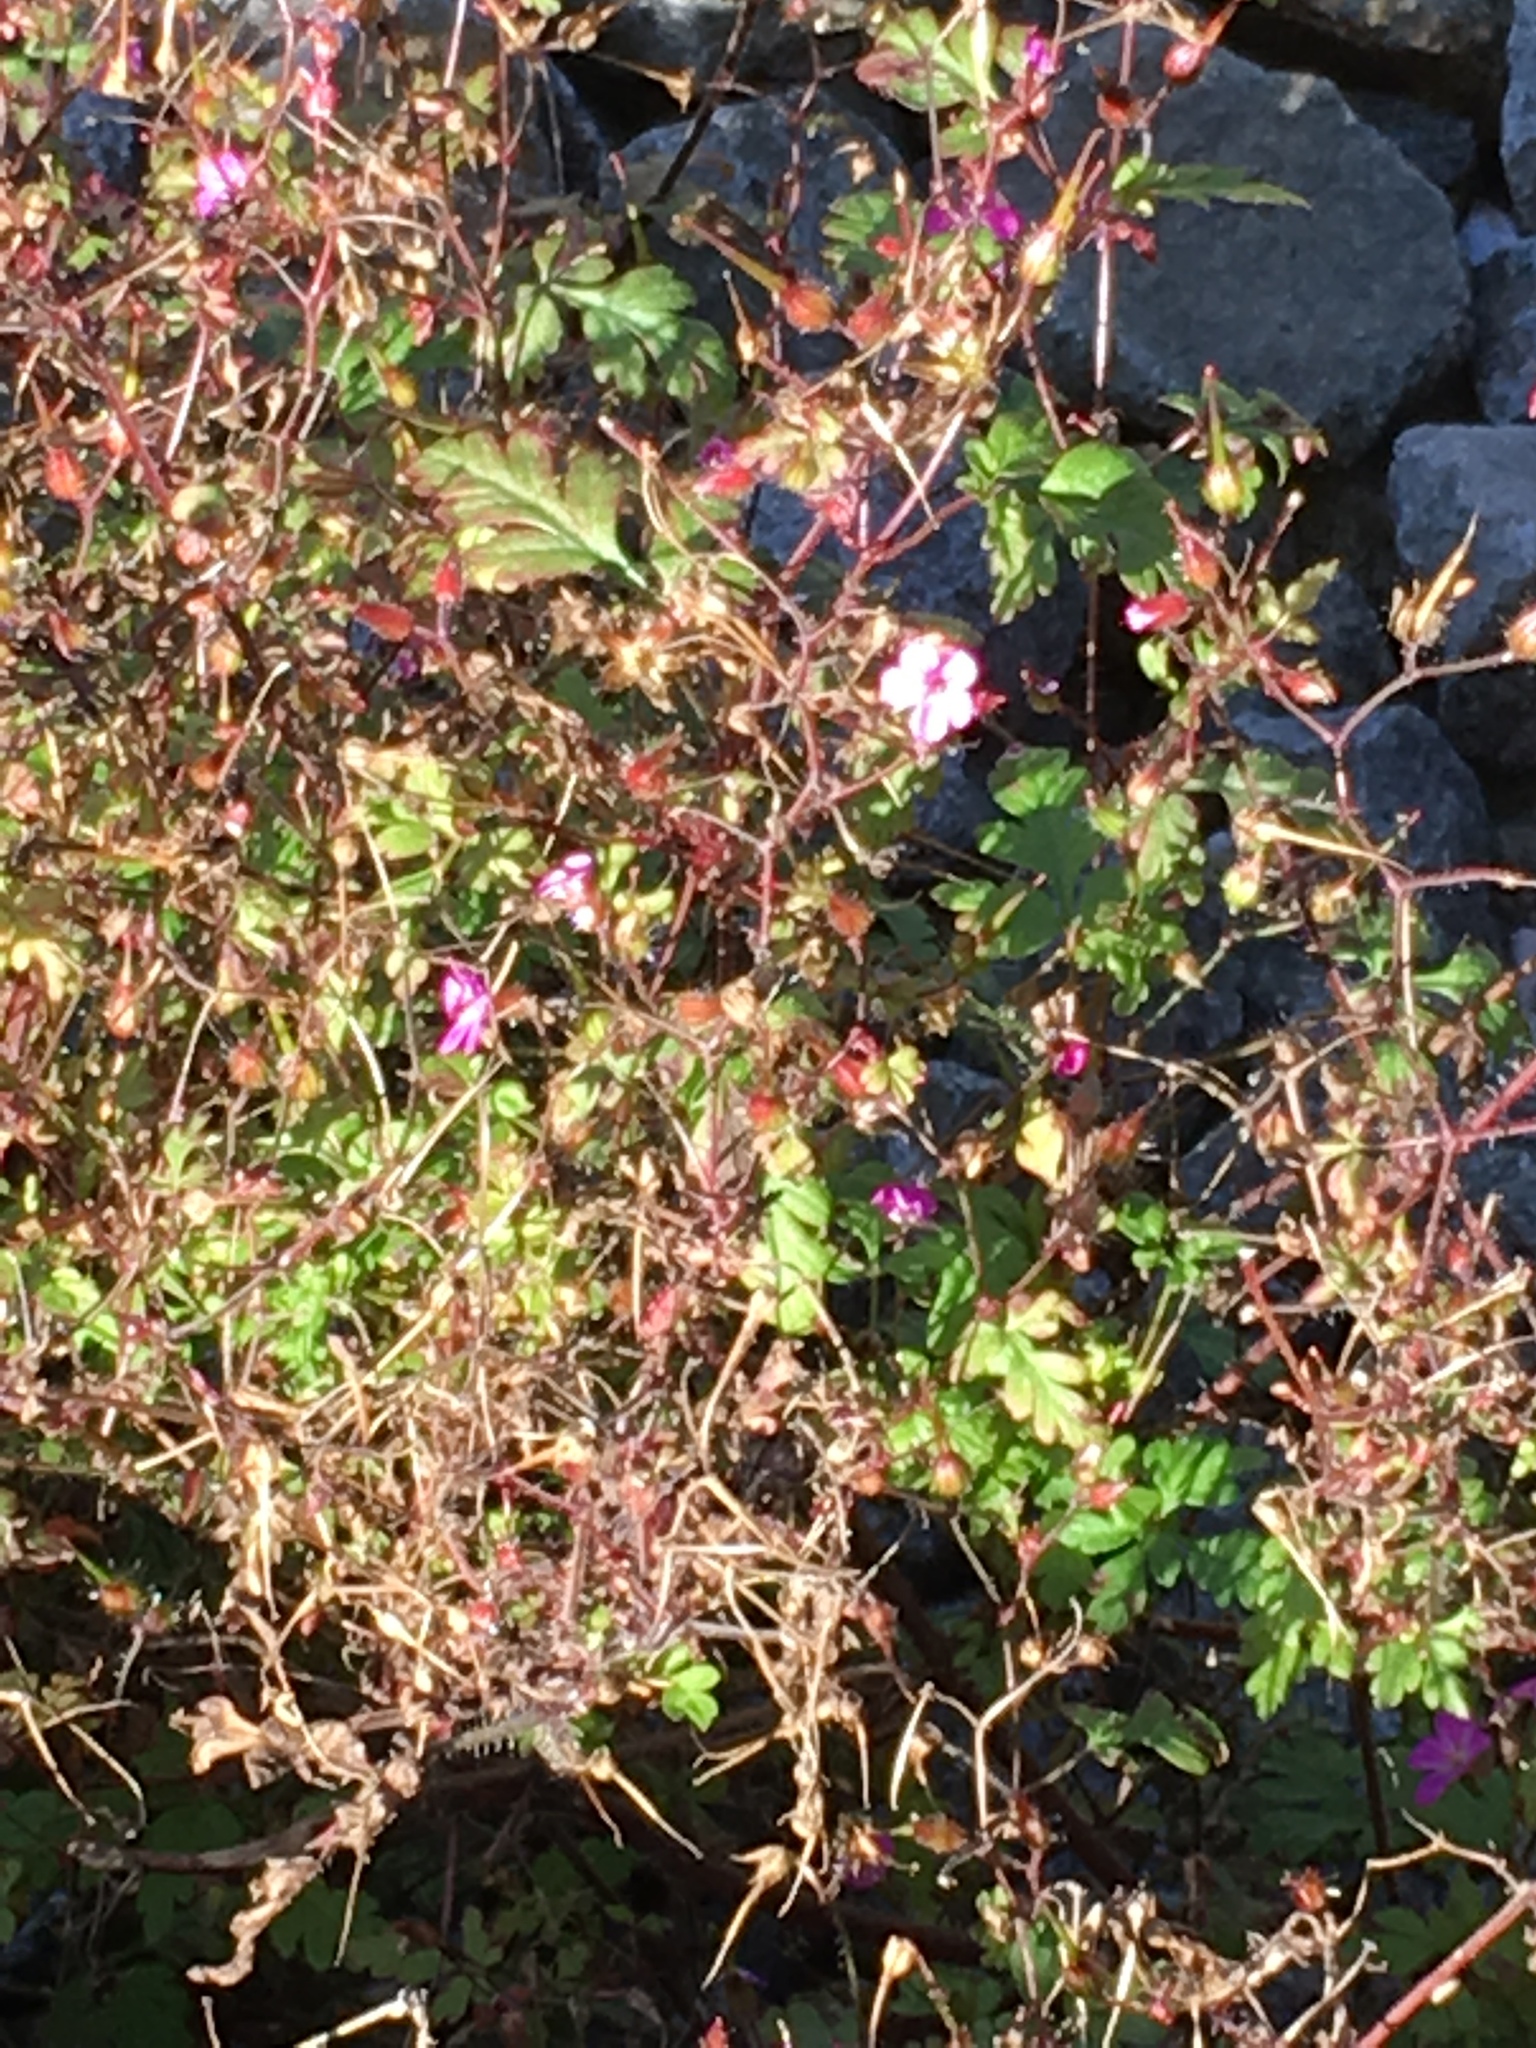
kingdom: Plantae
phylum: Tracheophyta
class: Magnoliopsida
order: Geraniales
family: Geraniaceae
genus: Geranium
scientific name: Geranium robertianum
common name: Herb-robert
